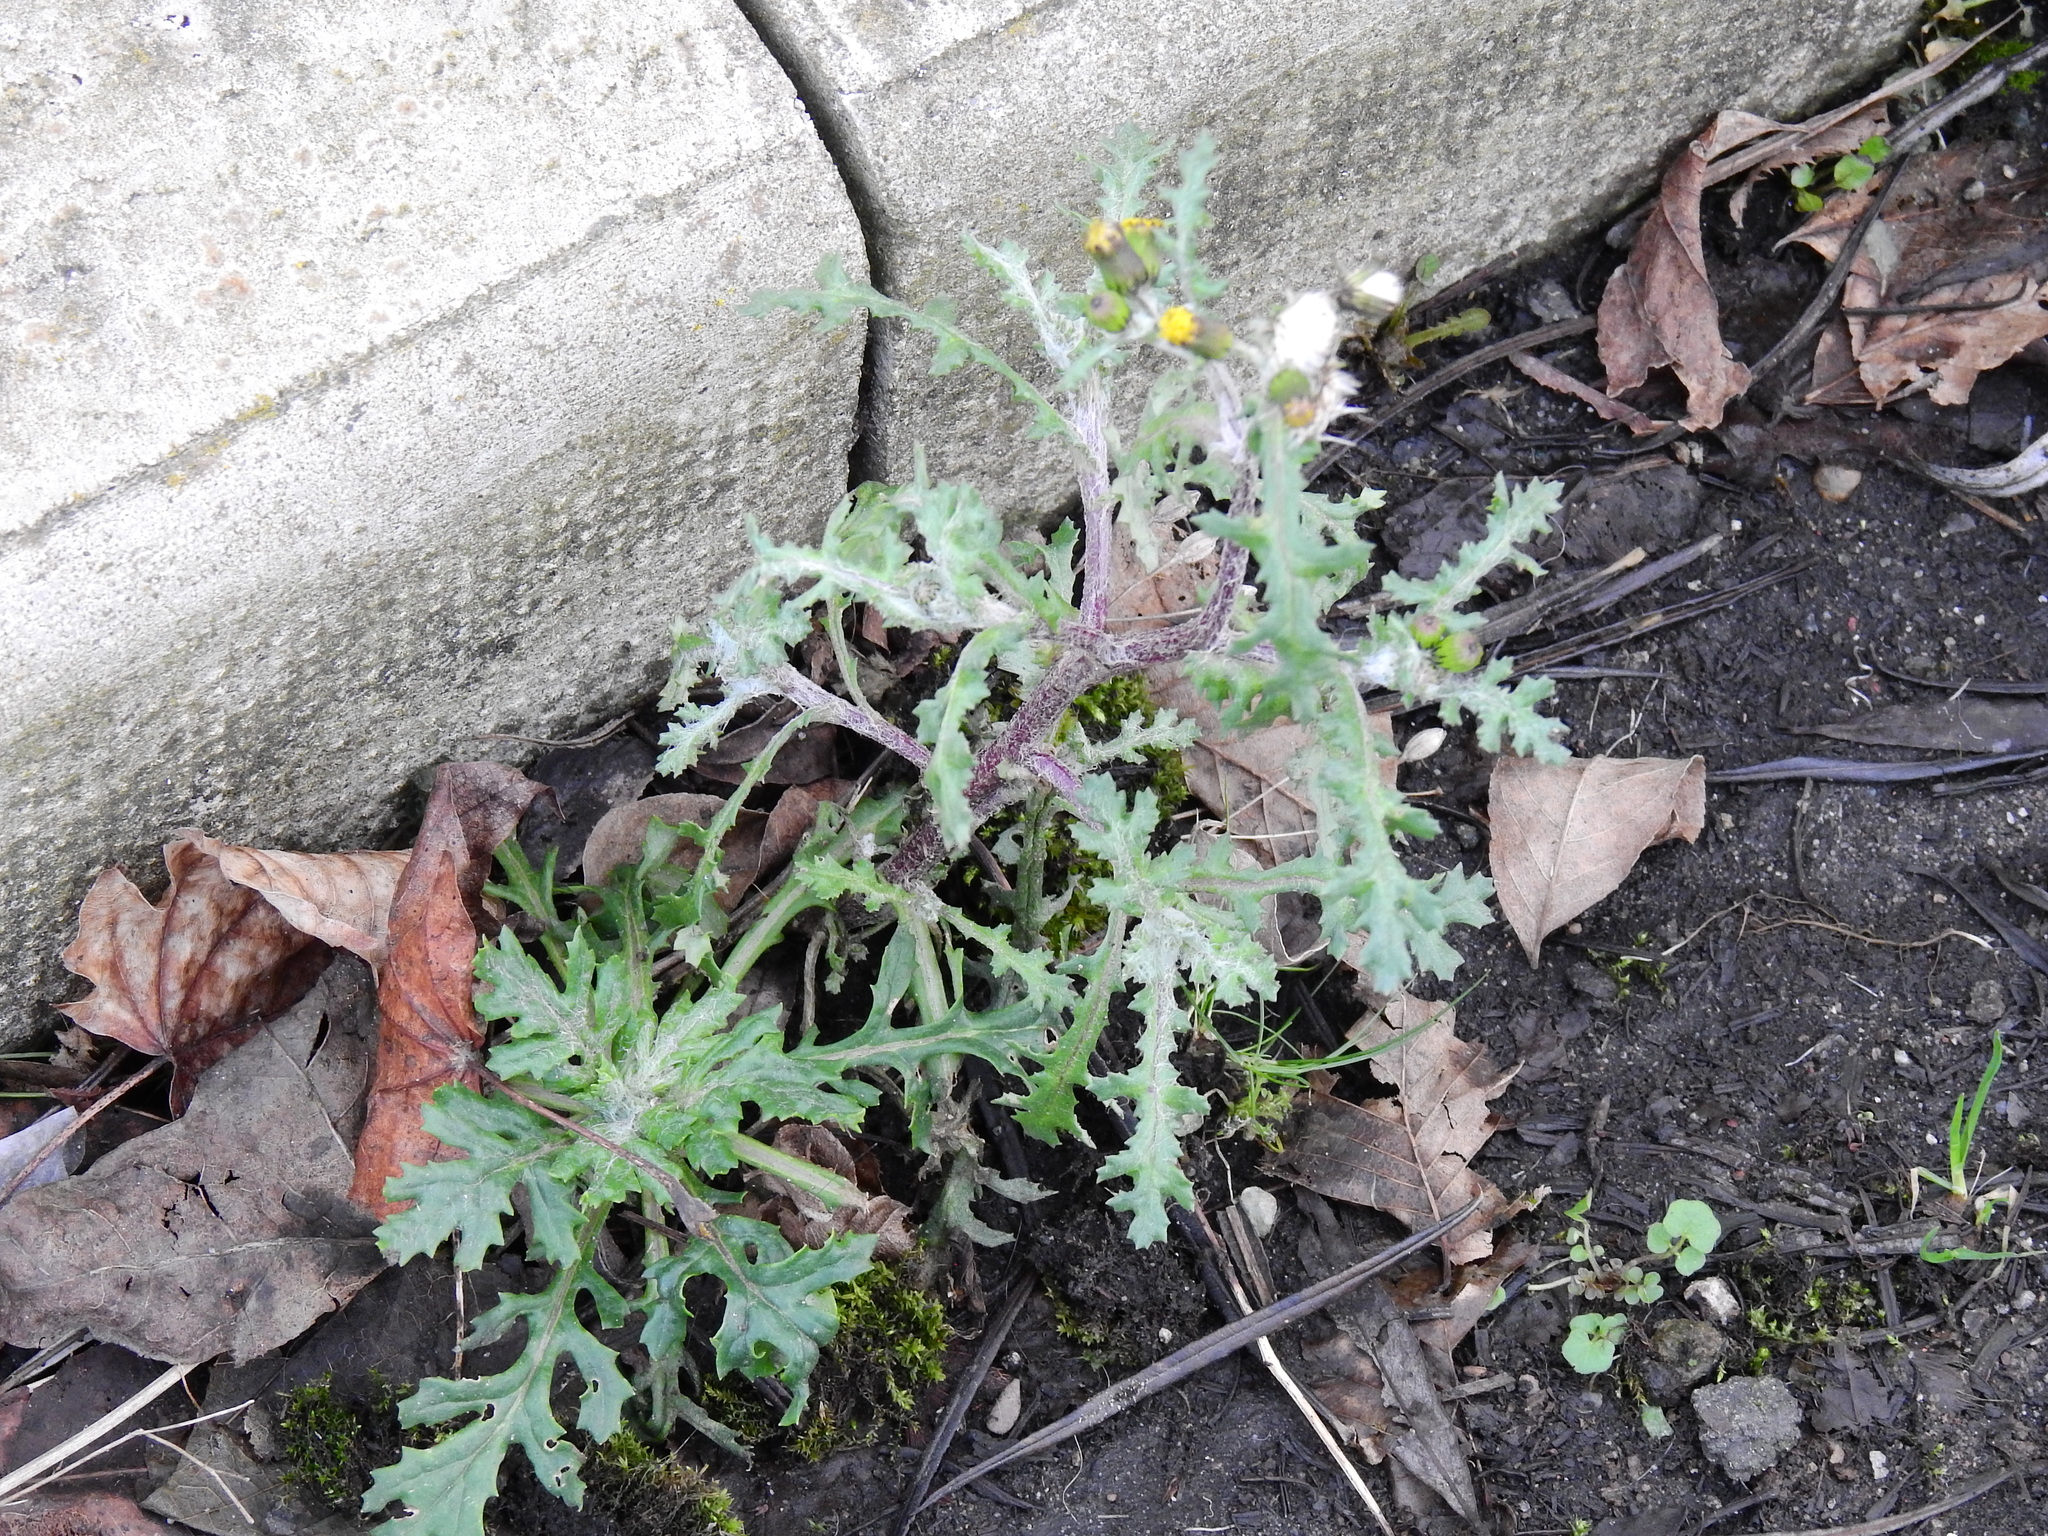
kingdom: Plantae
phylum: Tracheophyta
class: Magnoliopsida
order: Asterales
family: Asteraceae
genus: Senecio
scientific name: Senecio vulgaris
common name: Old-man-in-the-spring
